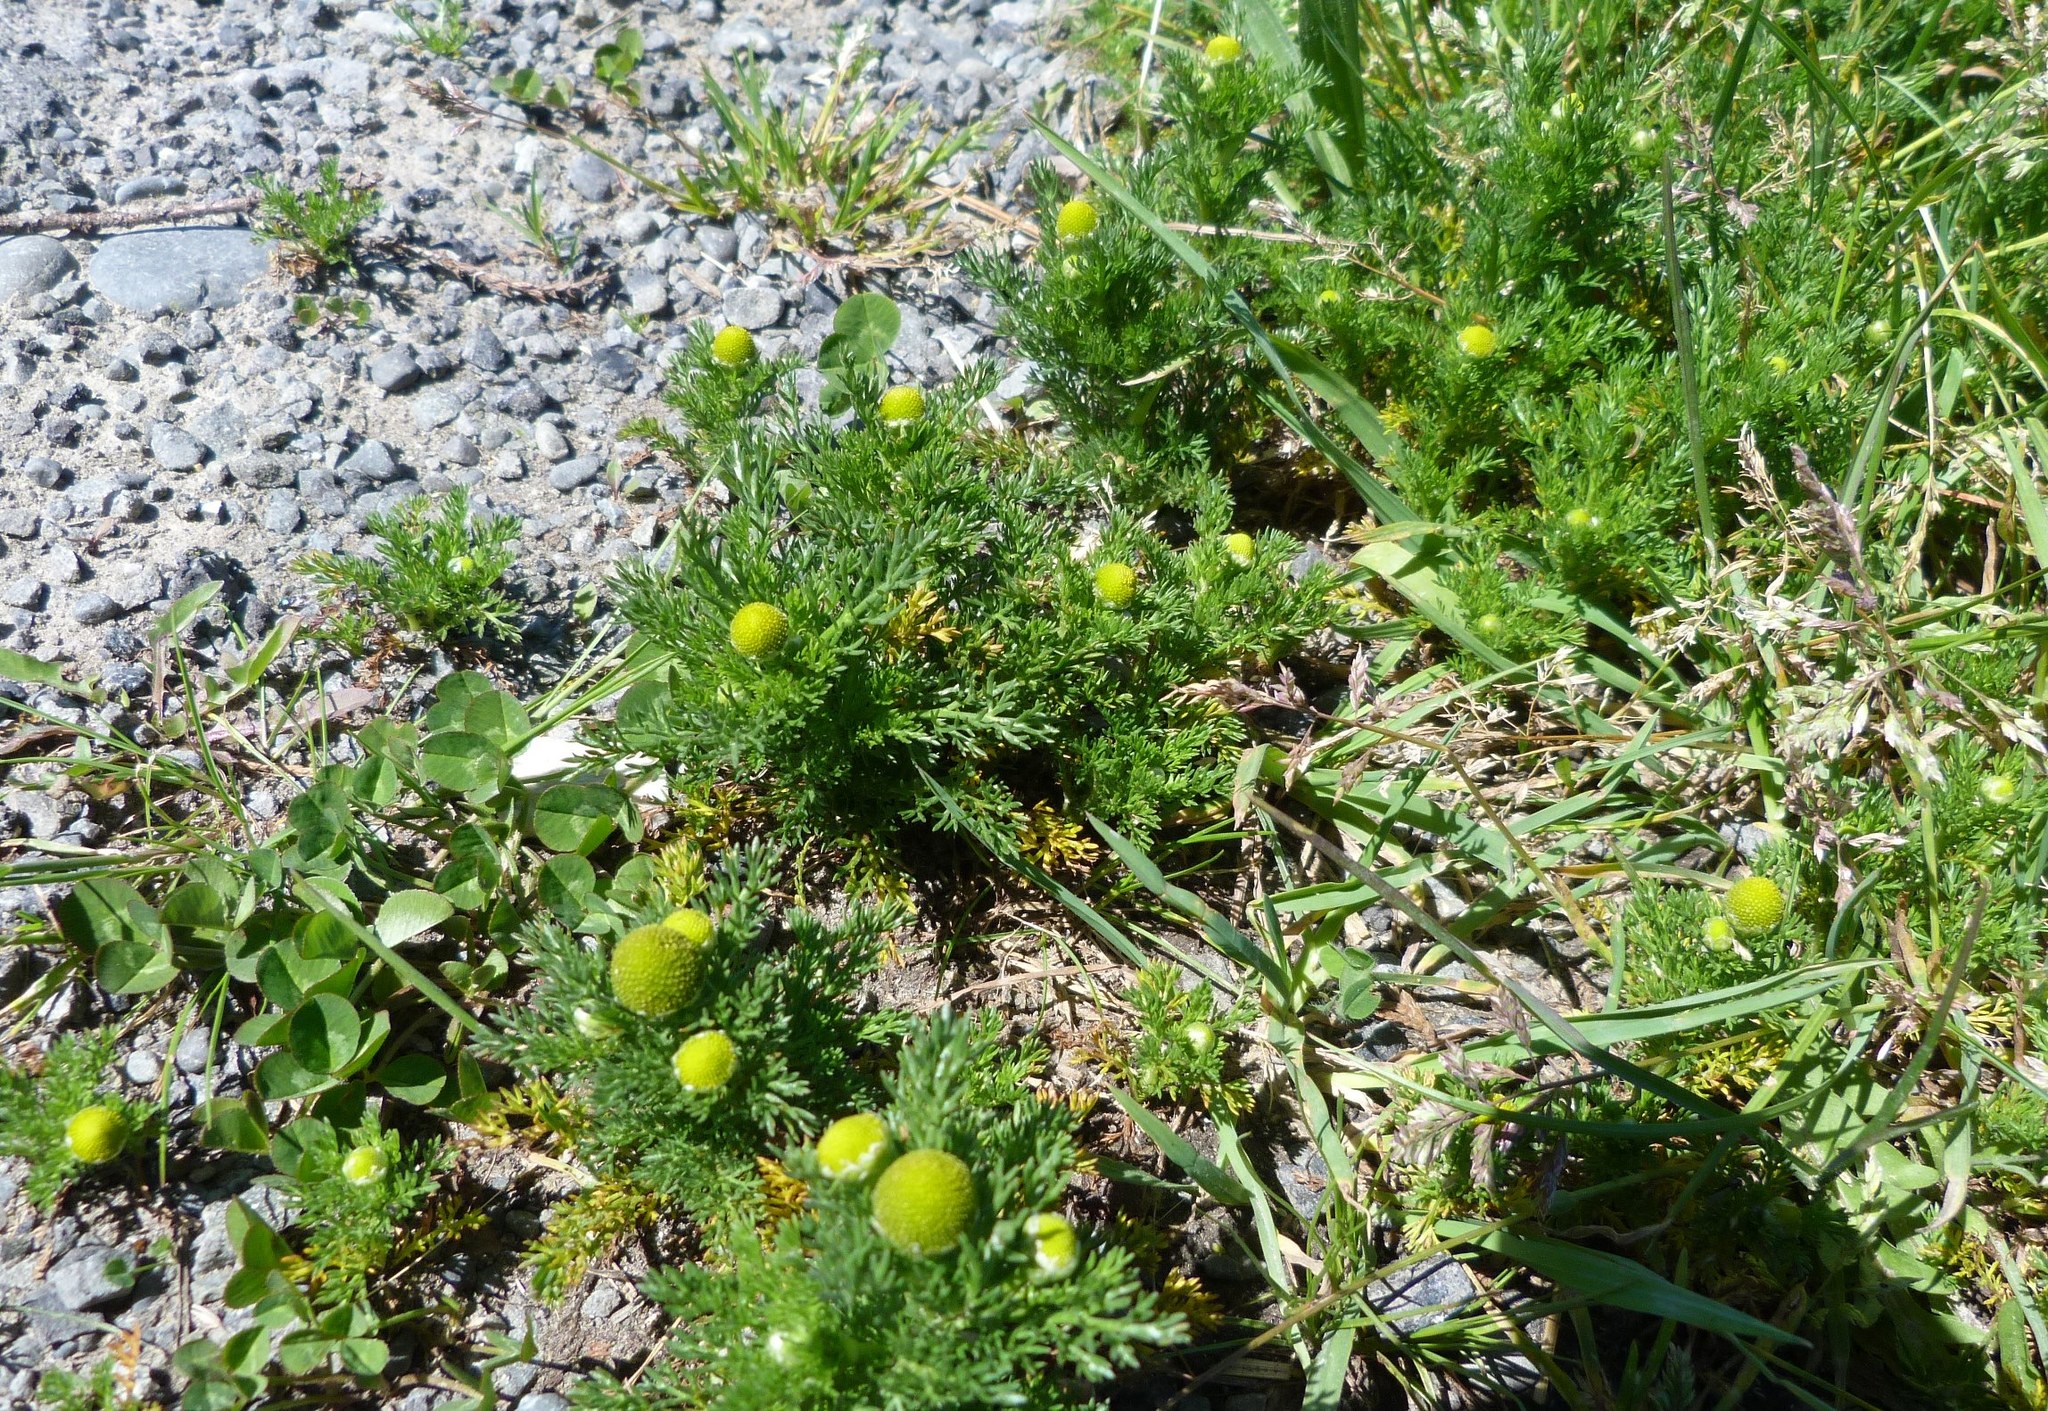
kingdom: Plantae
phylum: Tracheophyta
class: Magnoliopsida
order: Asterales
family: Asteraceae
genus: Matricaria
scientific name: Matricaria discoidea
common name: Disc mayweed
